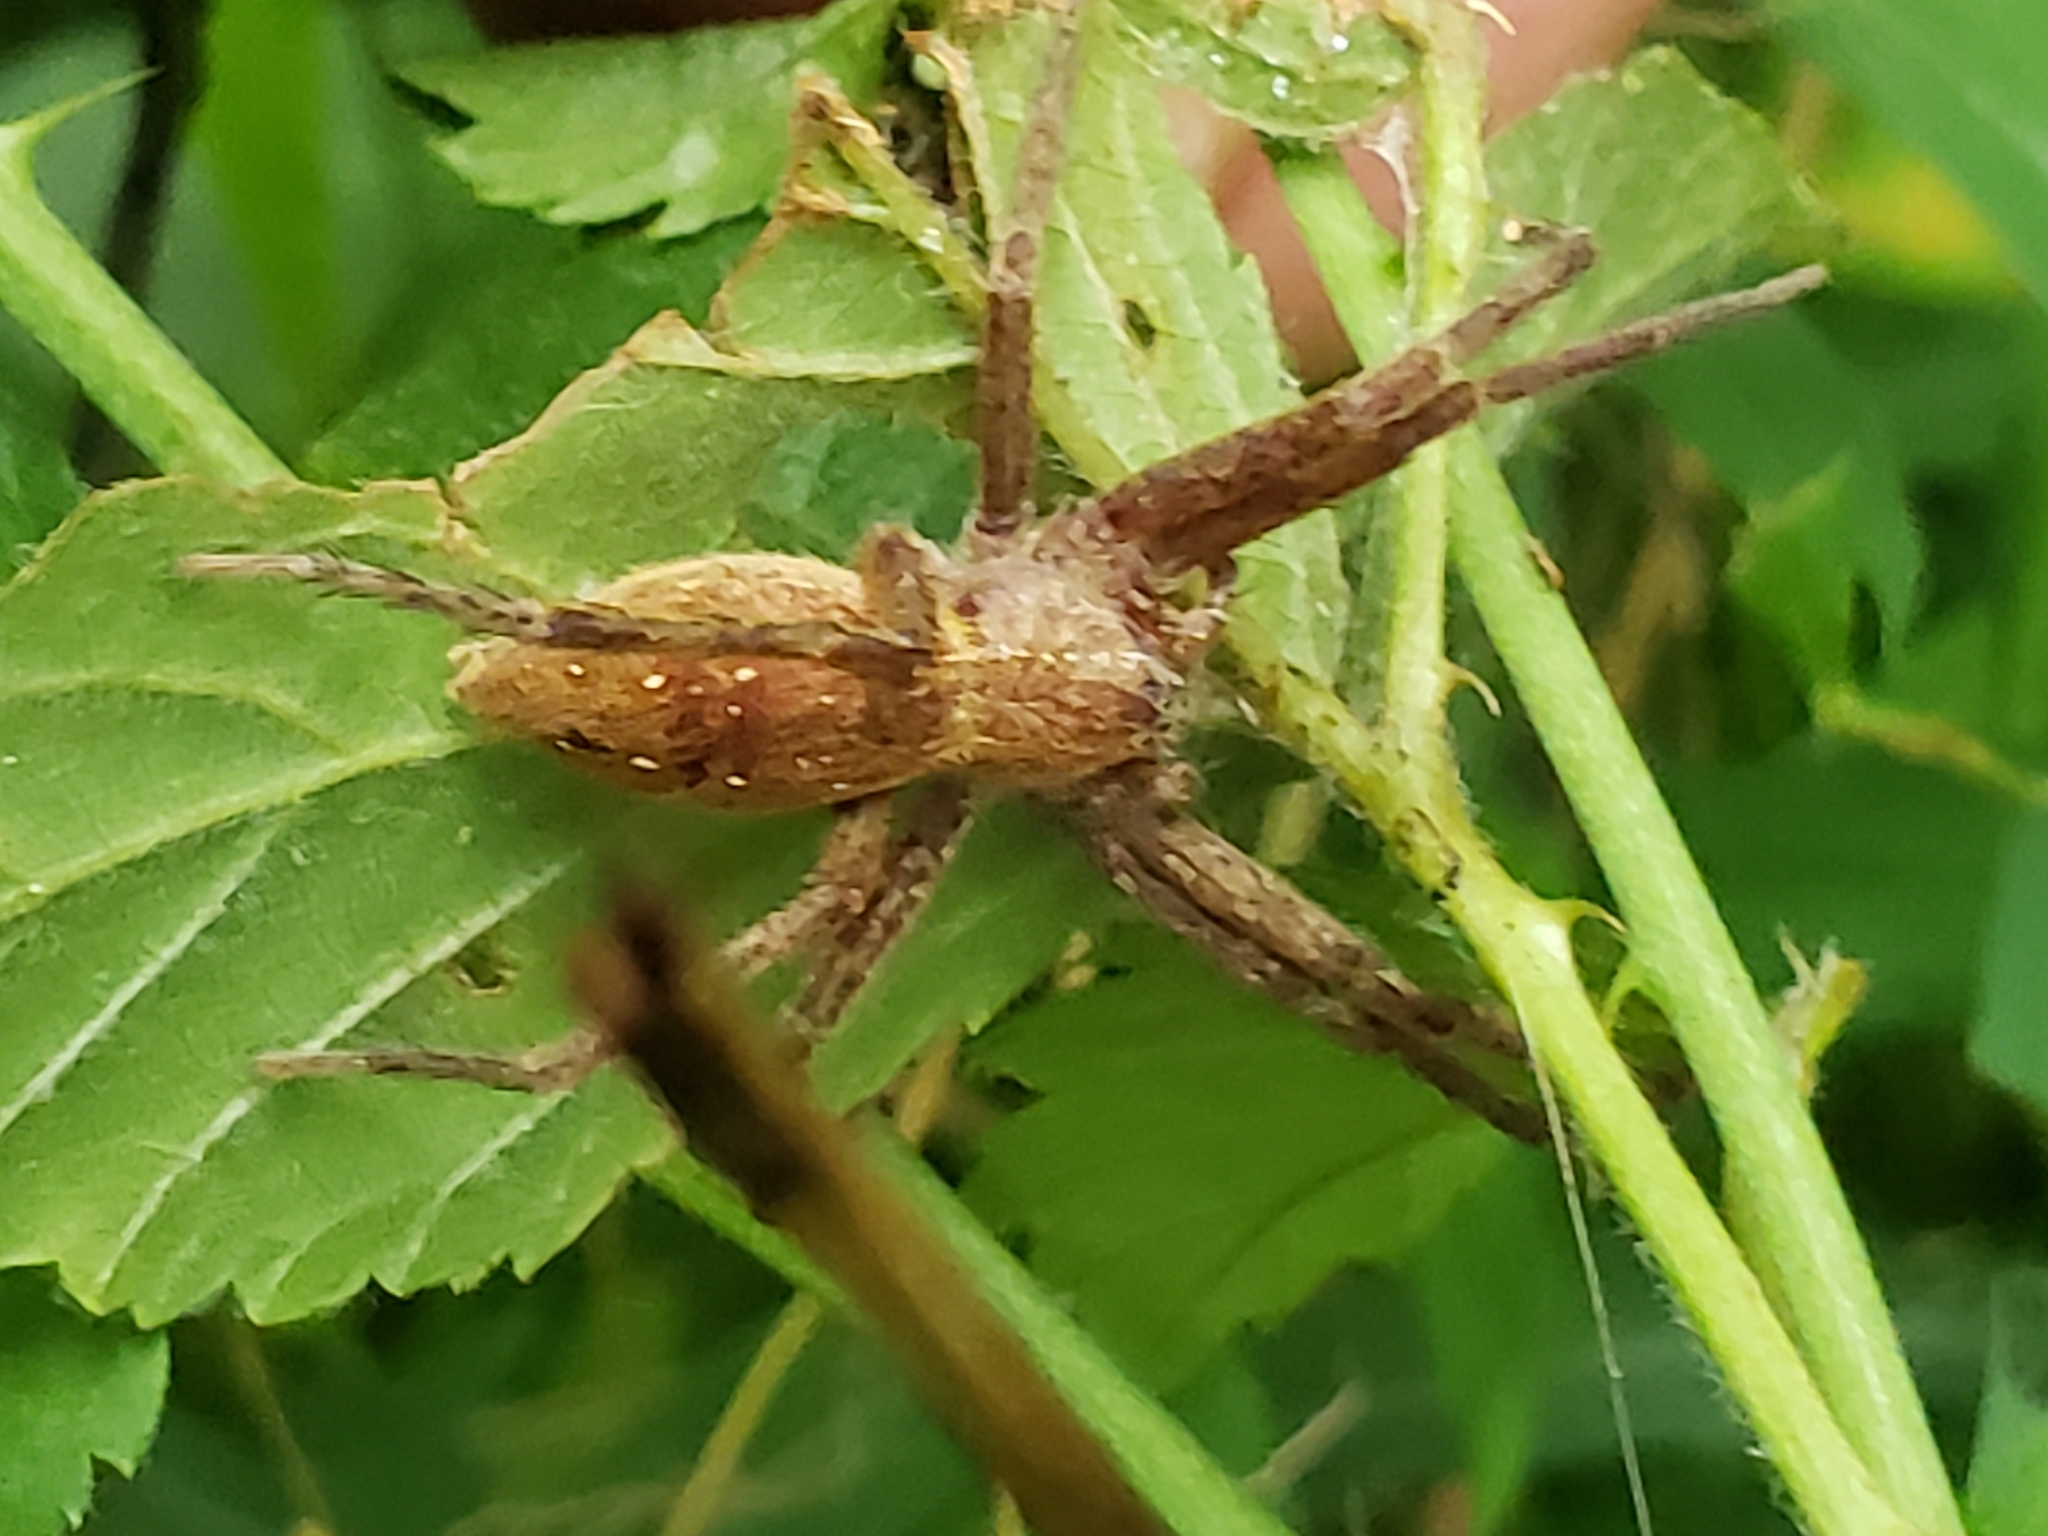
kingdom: Animalia
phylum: Arthropoda
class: Arachnida
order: Araneae
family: Pisauridae
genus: Pisaurina
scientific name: Pisaurina mira
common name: American nursery web spider
